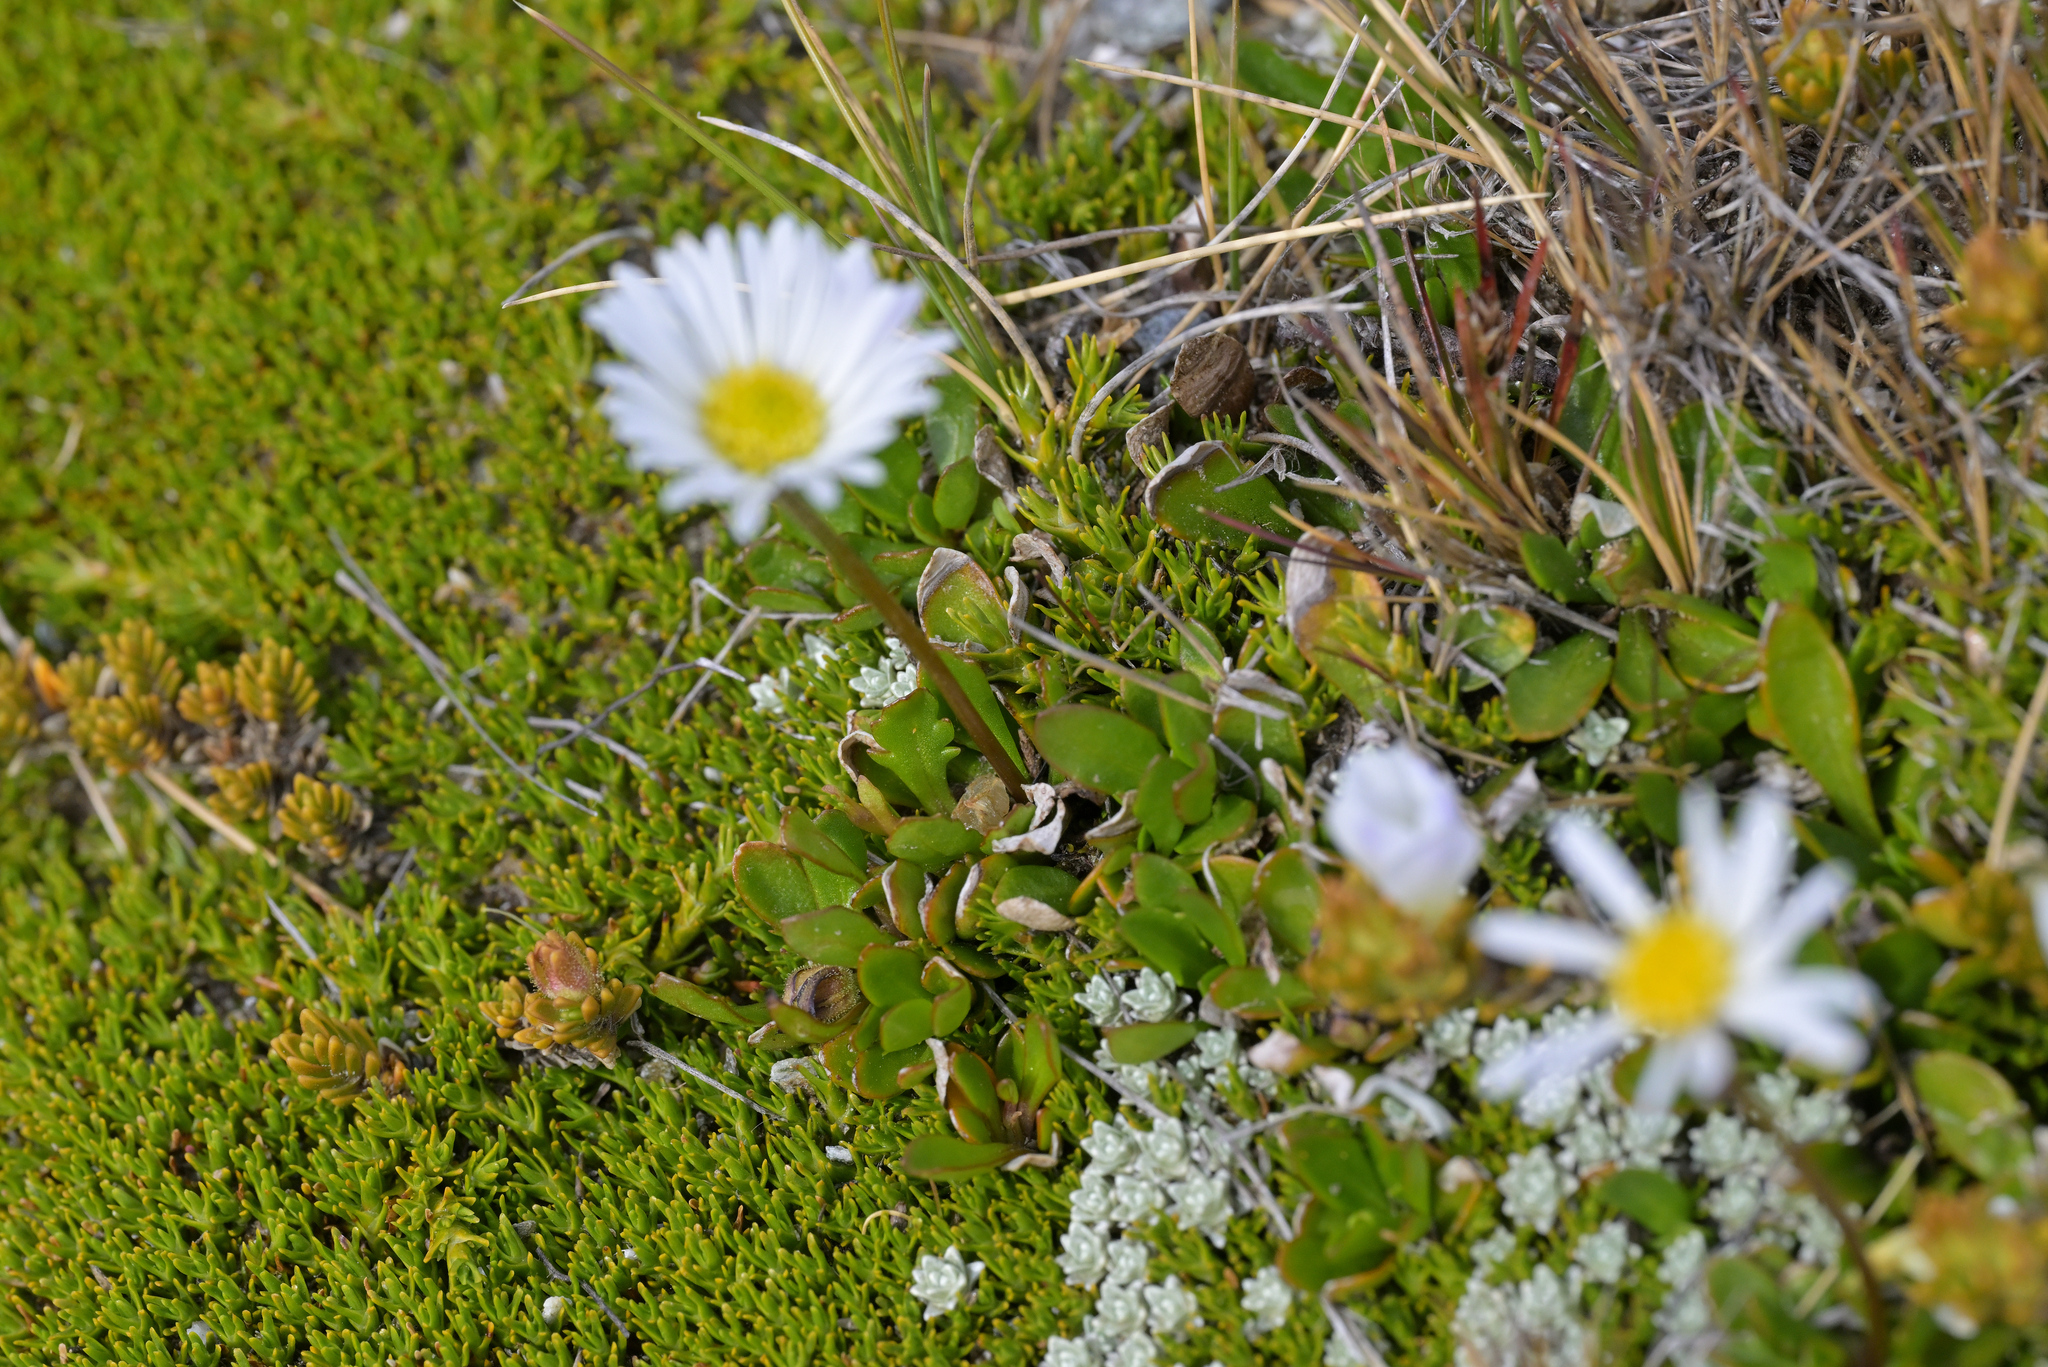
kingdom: Plantae
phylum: Tracheophyta
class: Magnoliopsida
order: Asterales
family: Asteraceae
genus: Brachyscome
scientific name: Brachyscome longiscapa
